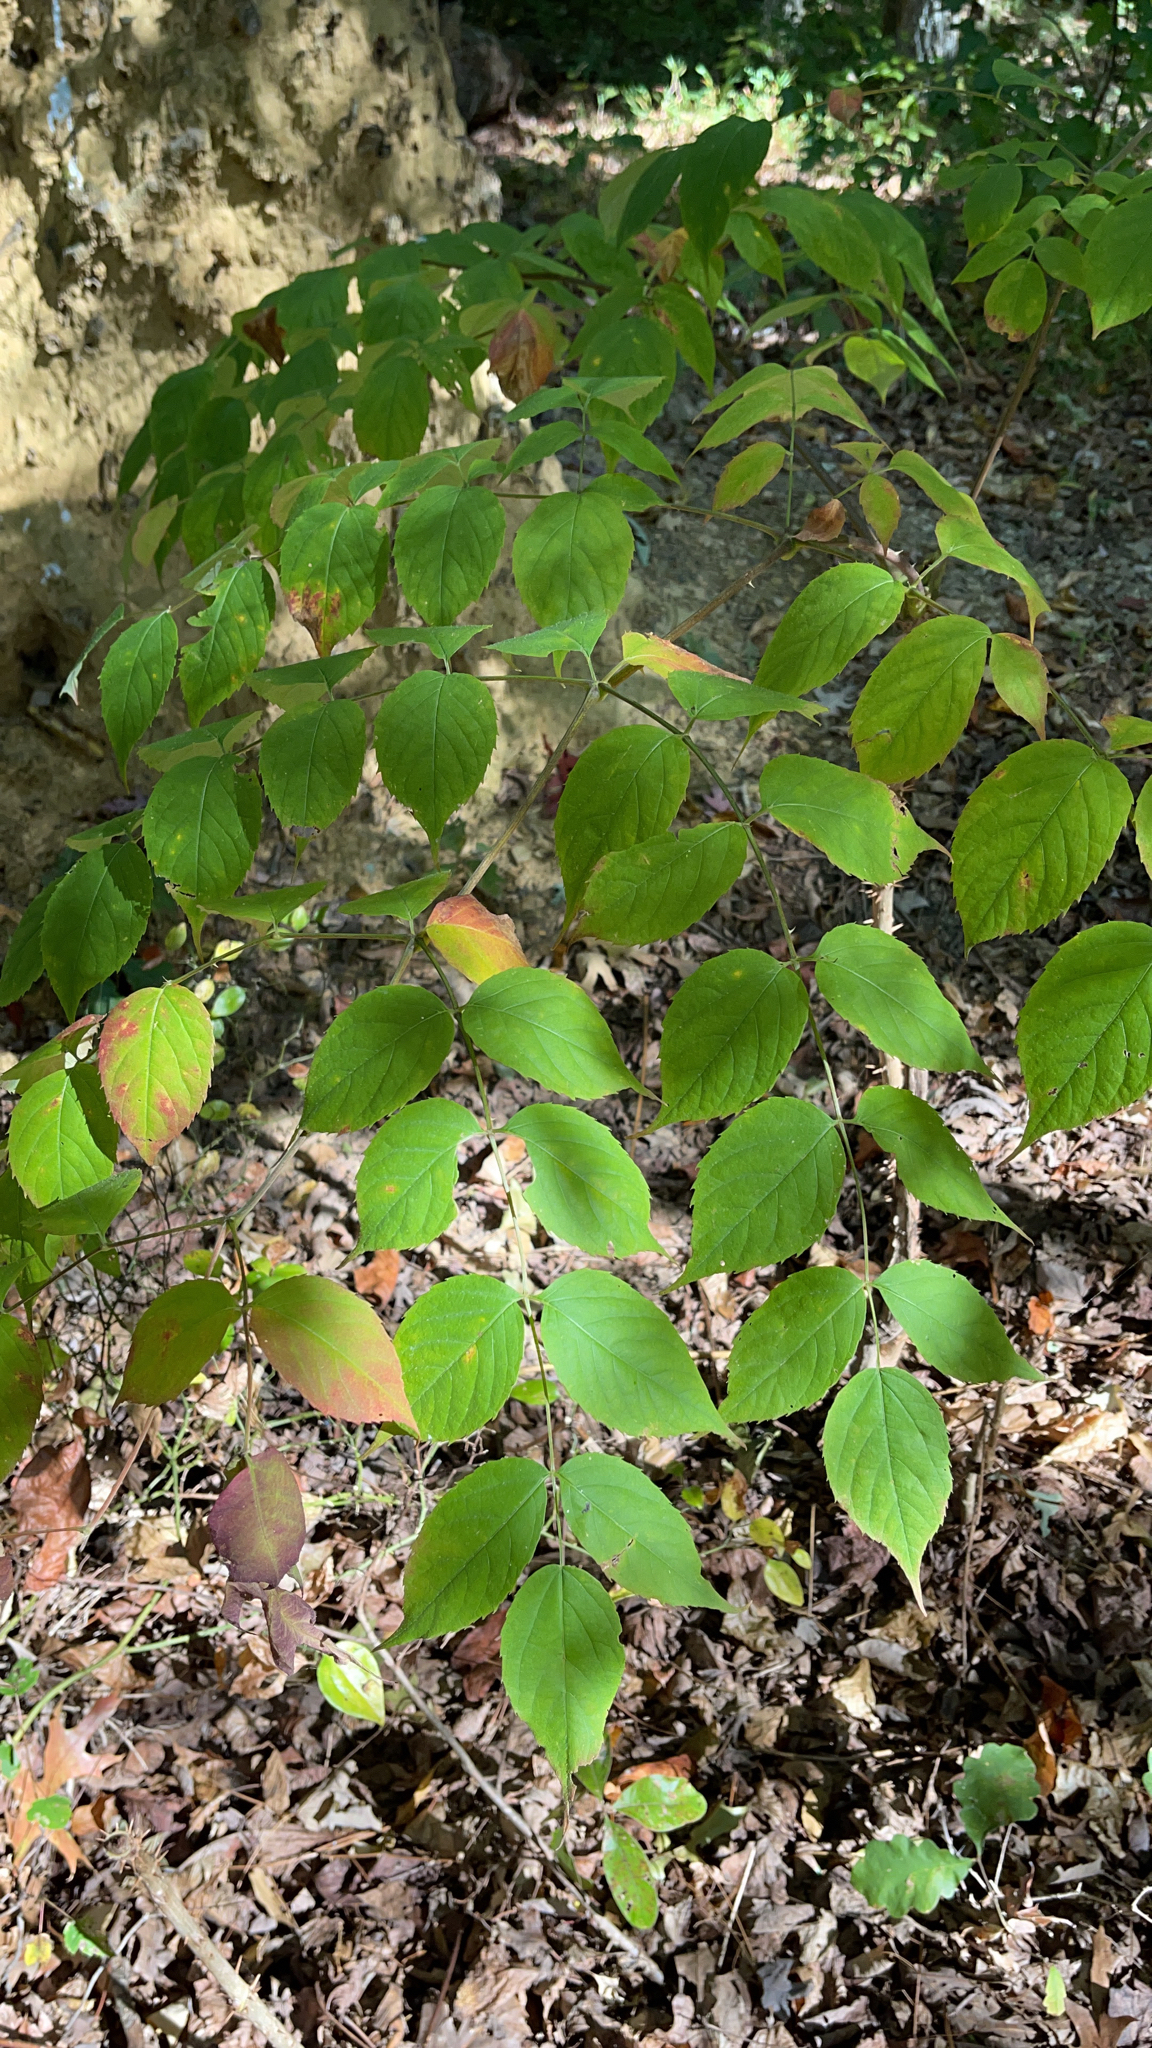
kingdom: Plantae
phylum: Tracheophyta
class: Magnoliopsida
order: Apiales
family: Araliaceae
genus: Aralia
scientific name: Aralia spinosa
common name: Hercules'-club
